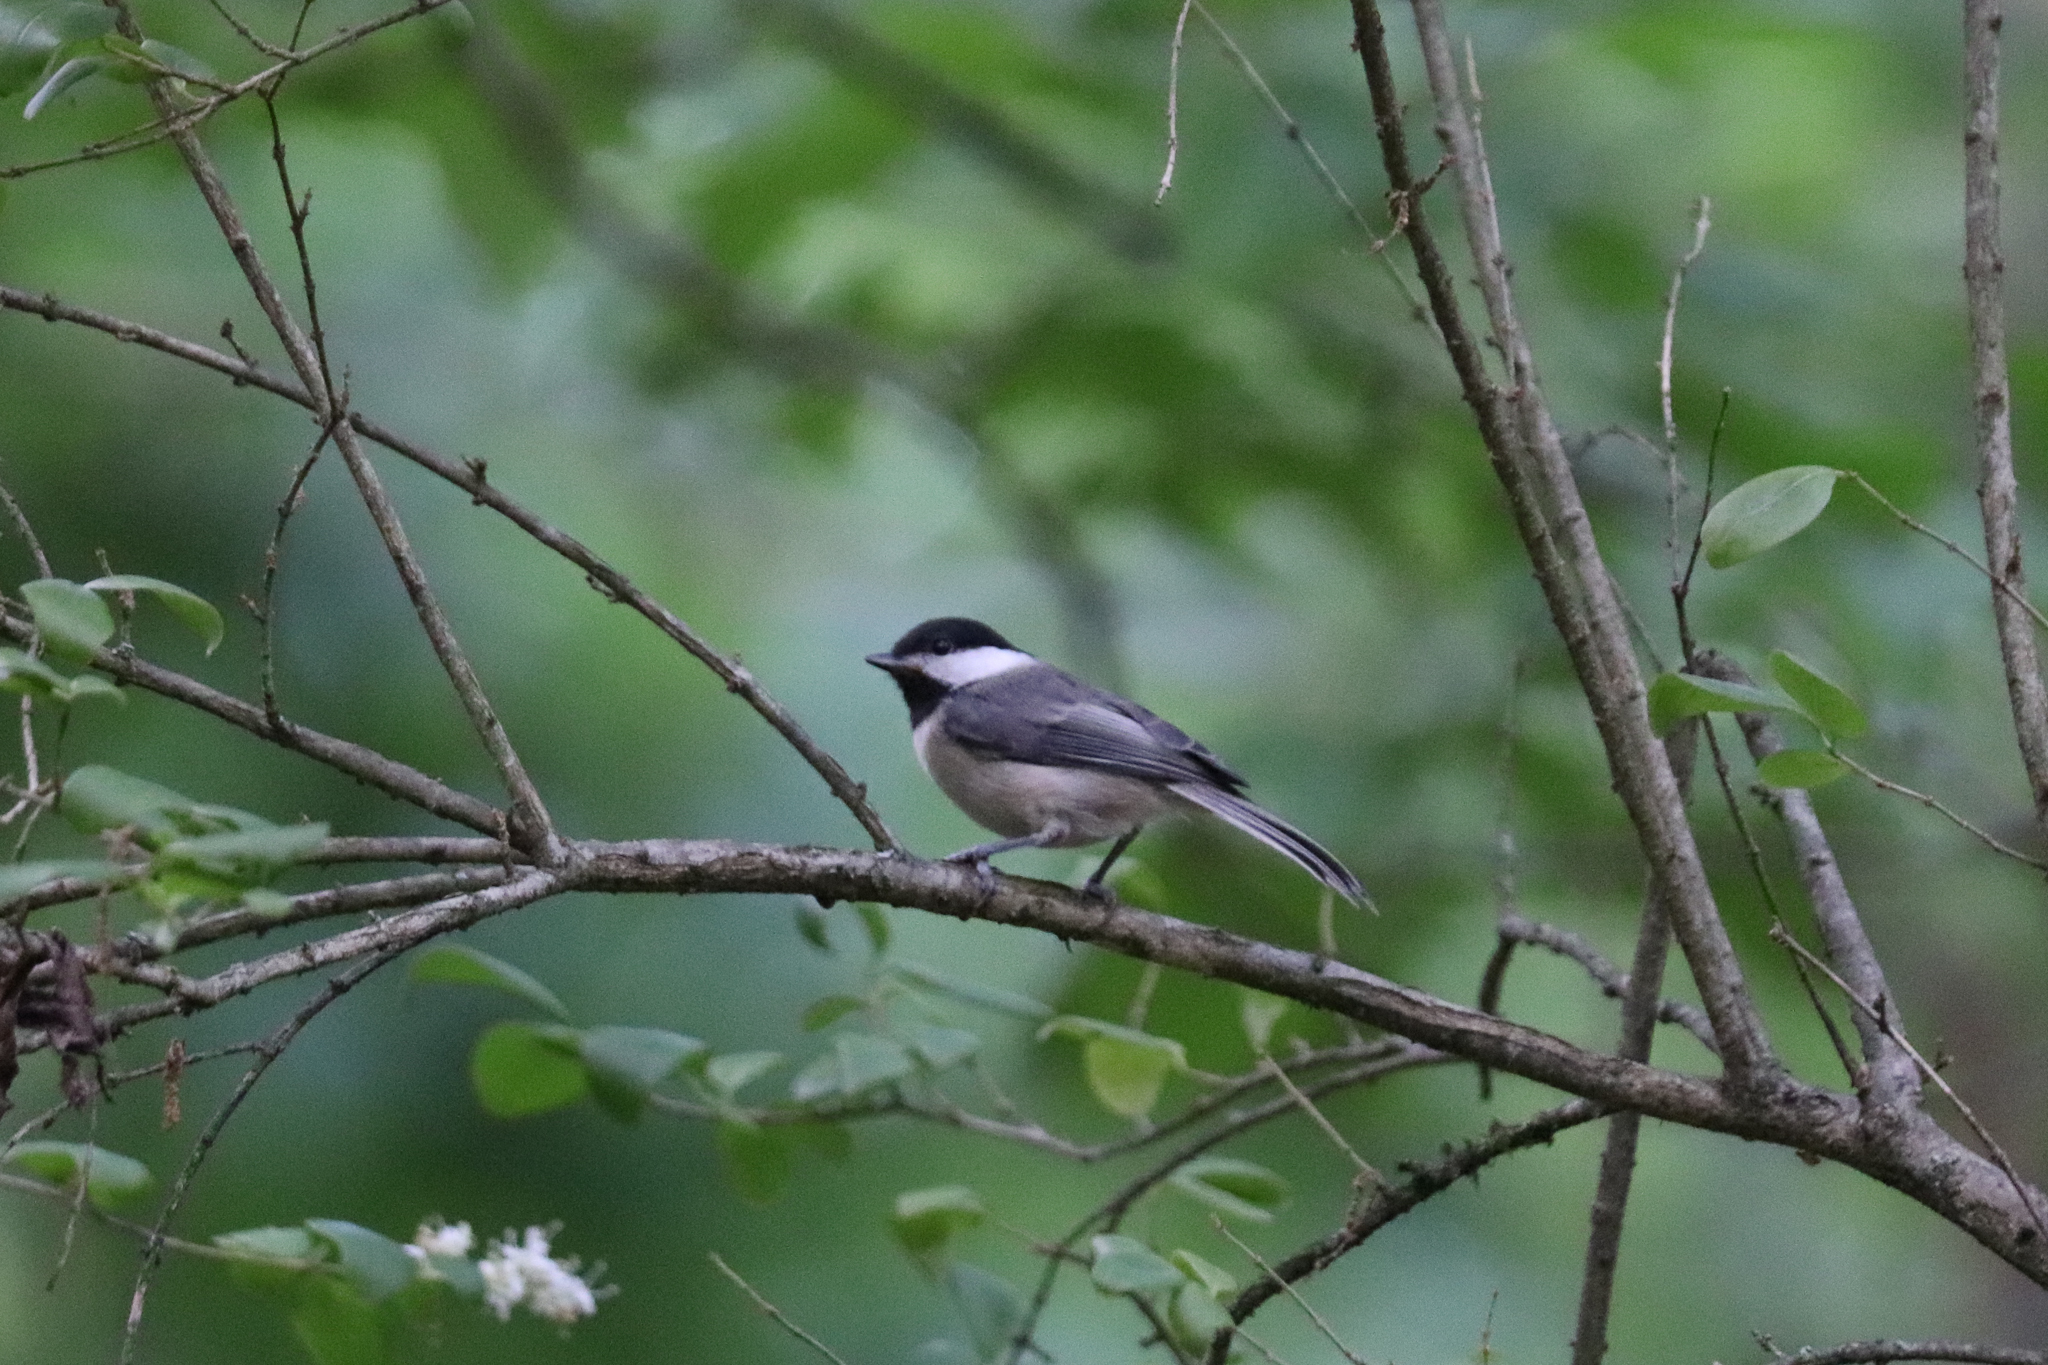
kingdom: Animalia
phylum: Chordata
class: Aves
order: Passeriformes
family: Paridae
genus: Poecile
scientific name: Poecile carolinensis
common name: Carolina chickadee
